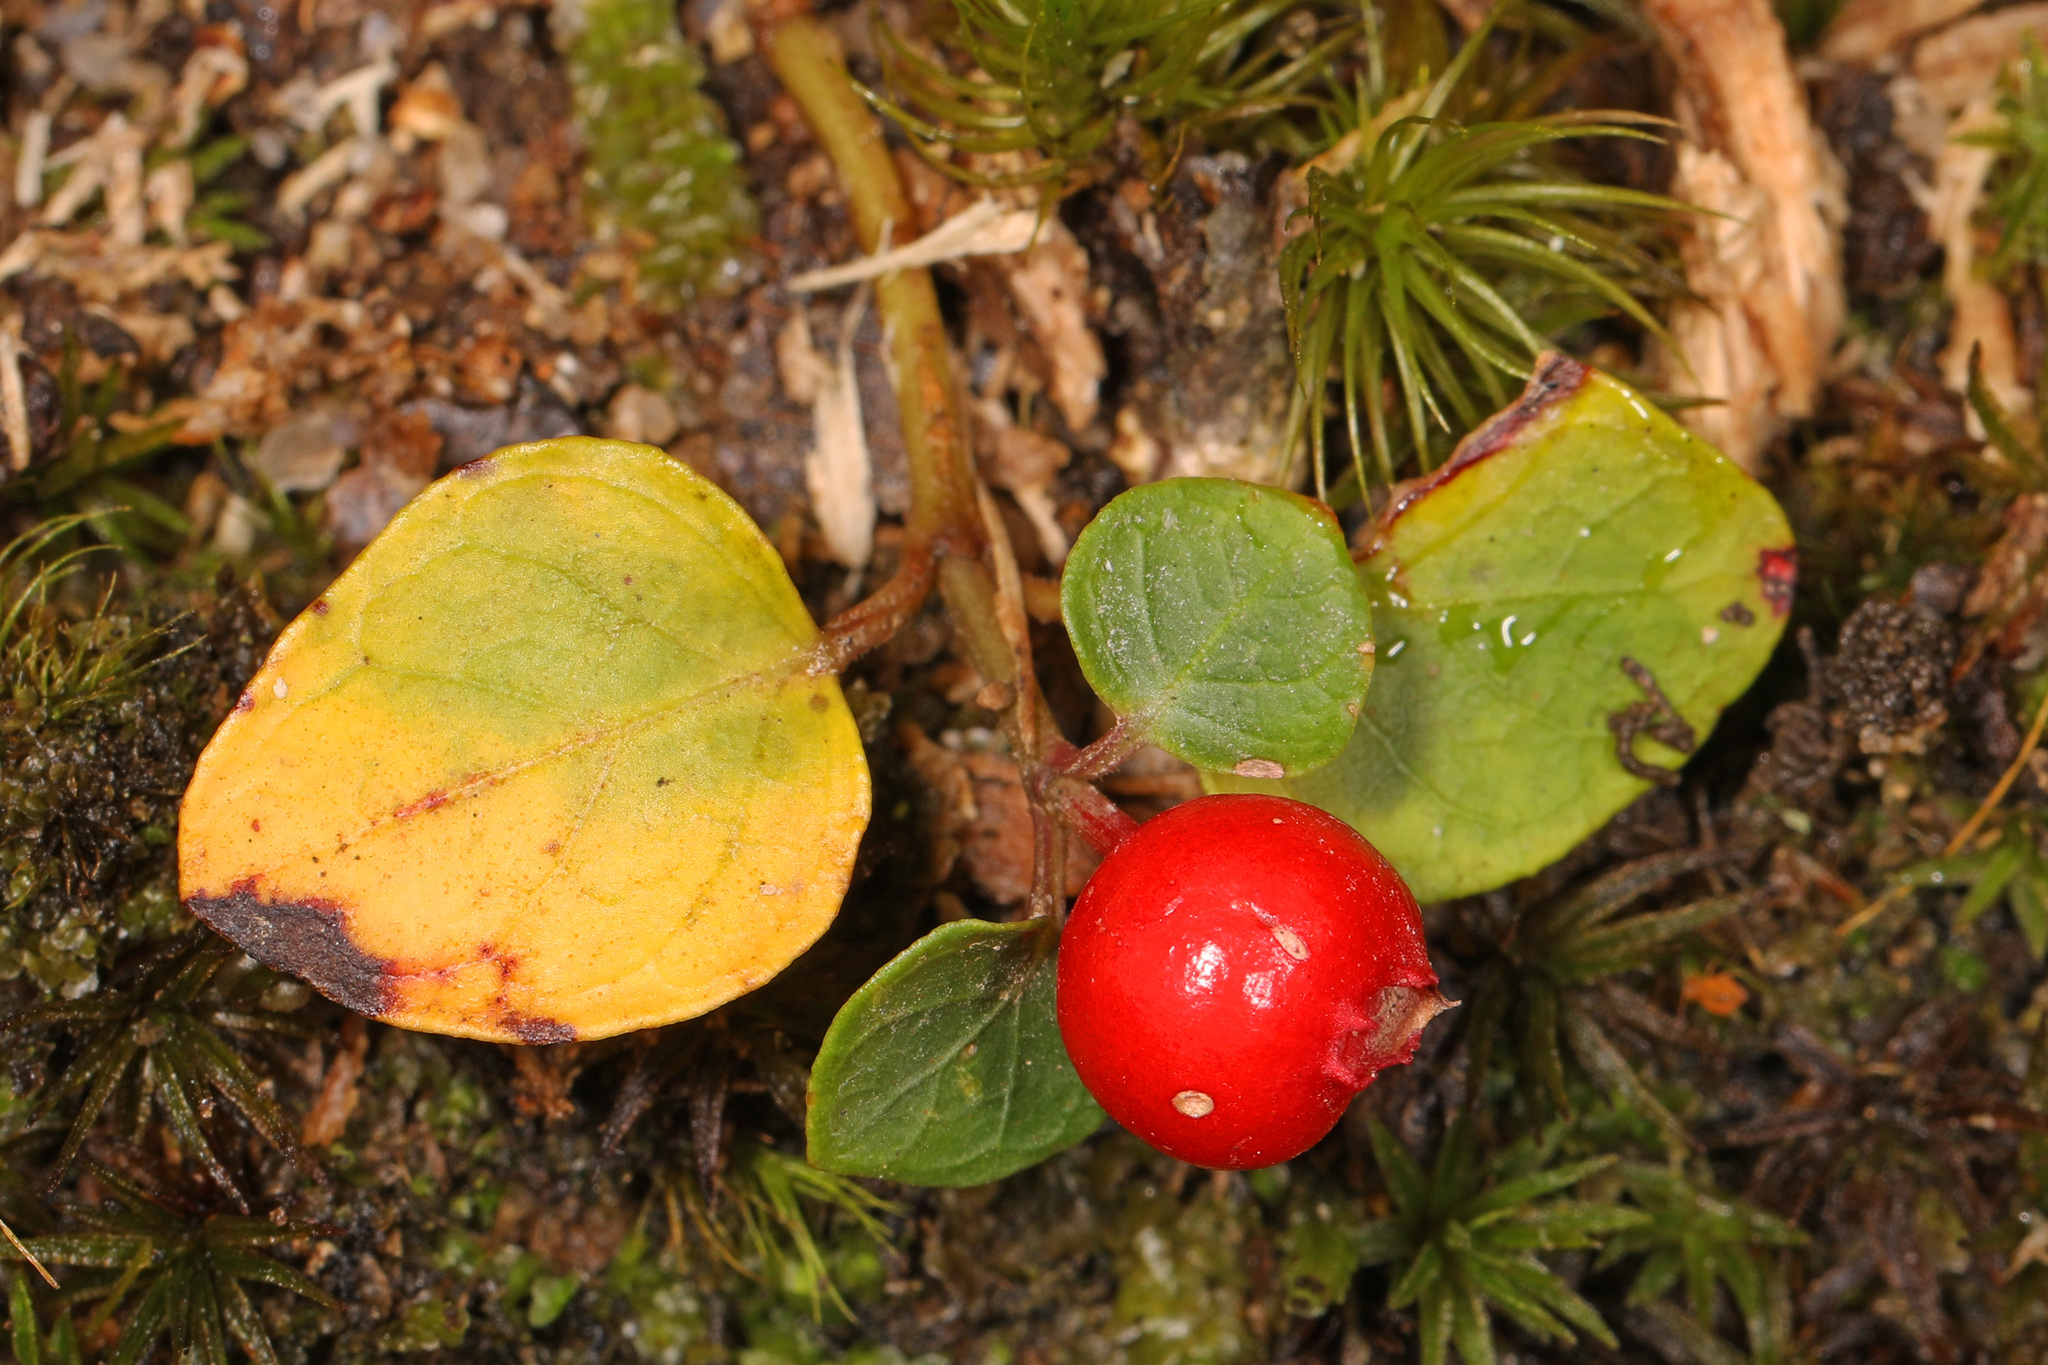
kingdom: Plantae
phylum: Tracheophyta
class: Magnoliopsida
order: Gentianales
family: Rubiaceae
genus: Mitchella
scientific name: Mitchella repens
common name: Partridge-berry
